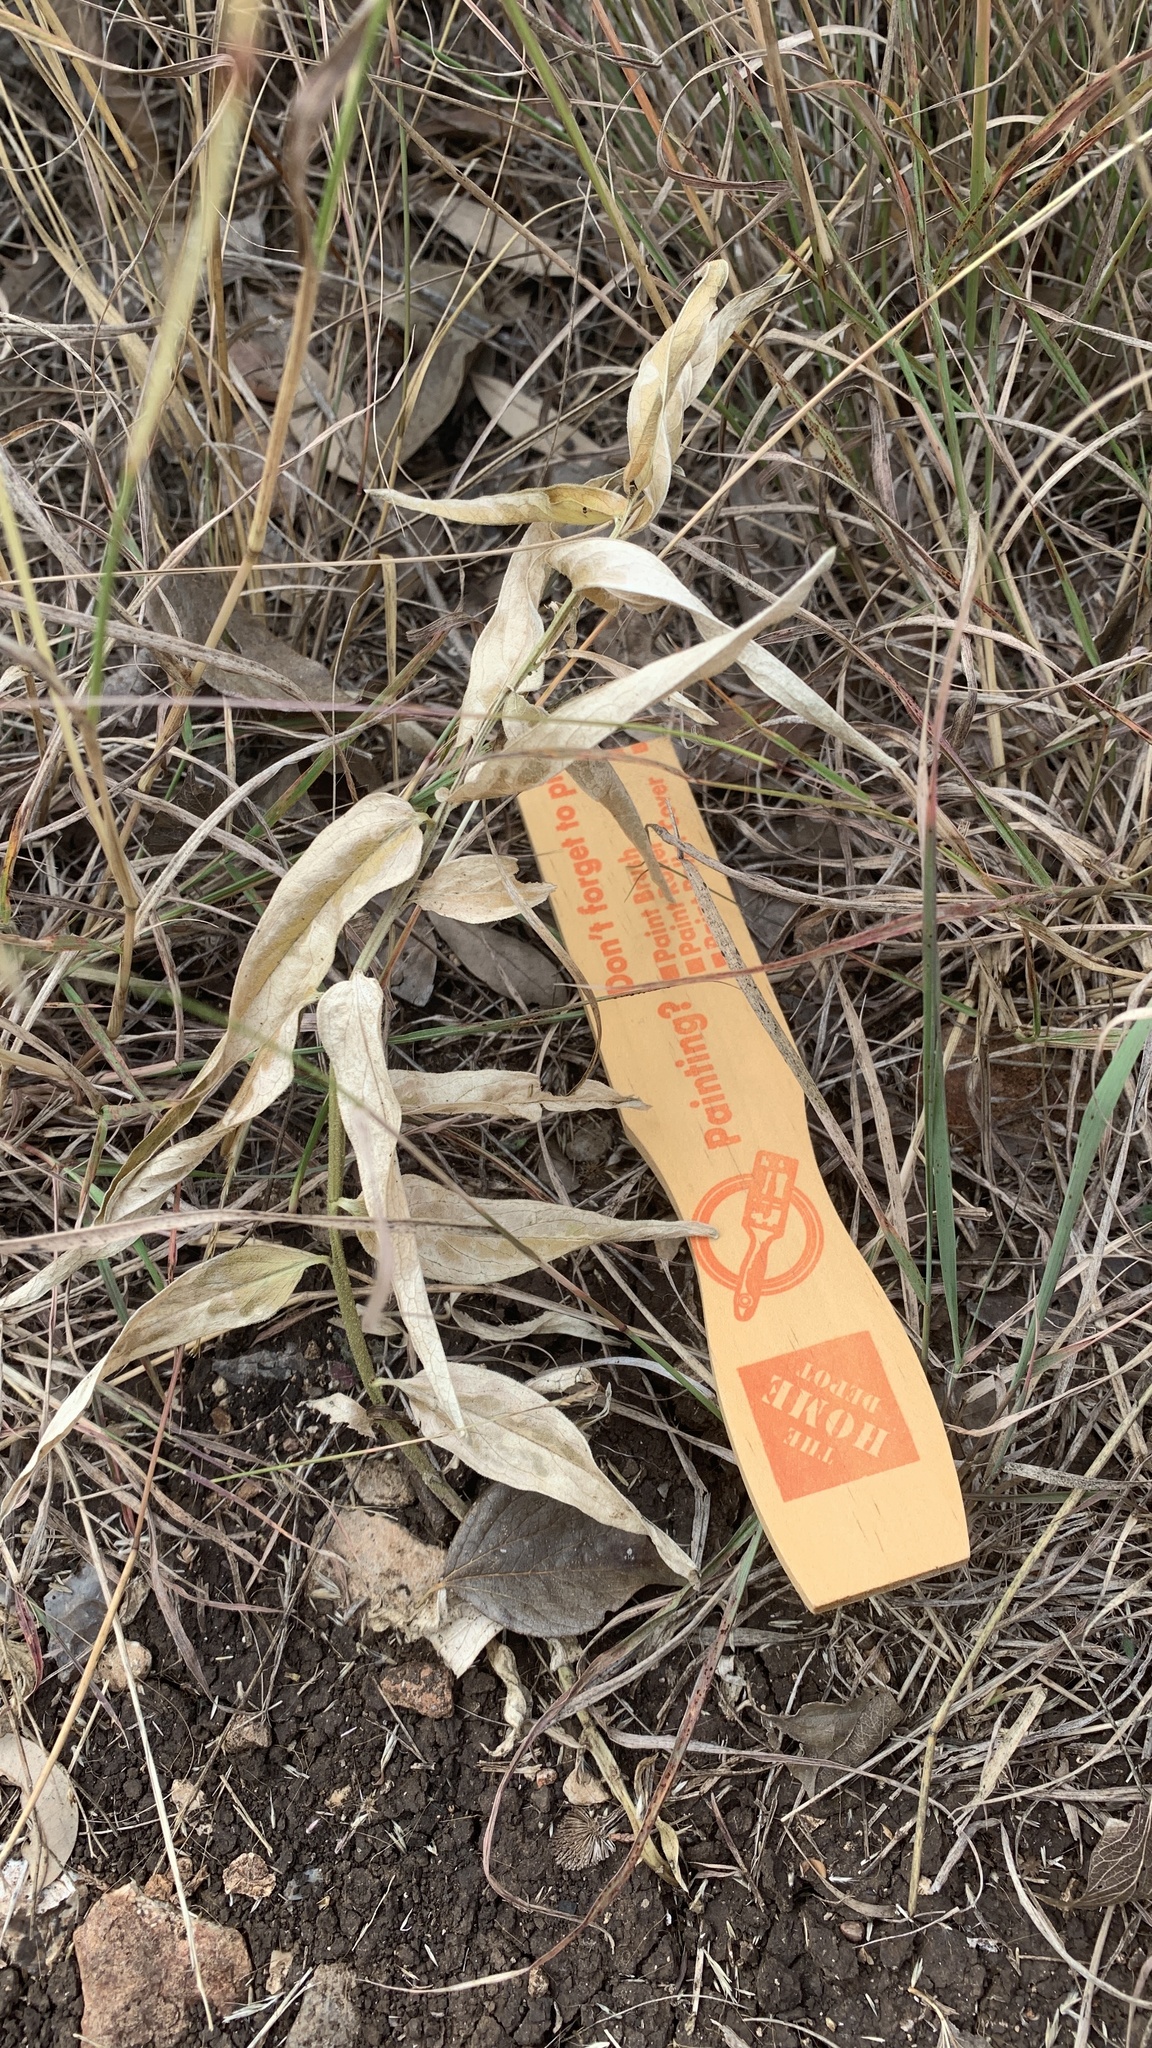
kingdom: Plantae
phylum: Tracheophyta
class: Magnoliopsida
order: Gentianales
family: Apocynaceae
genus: Asclepias
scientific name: Asclepias asperula
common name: Antelope horns
